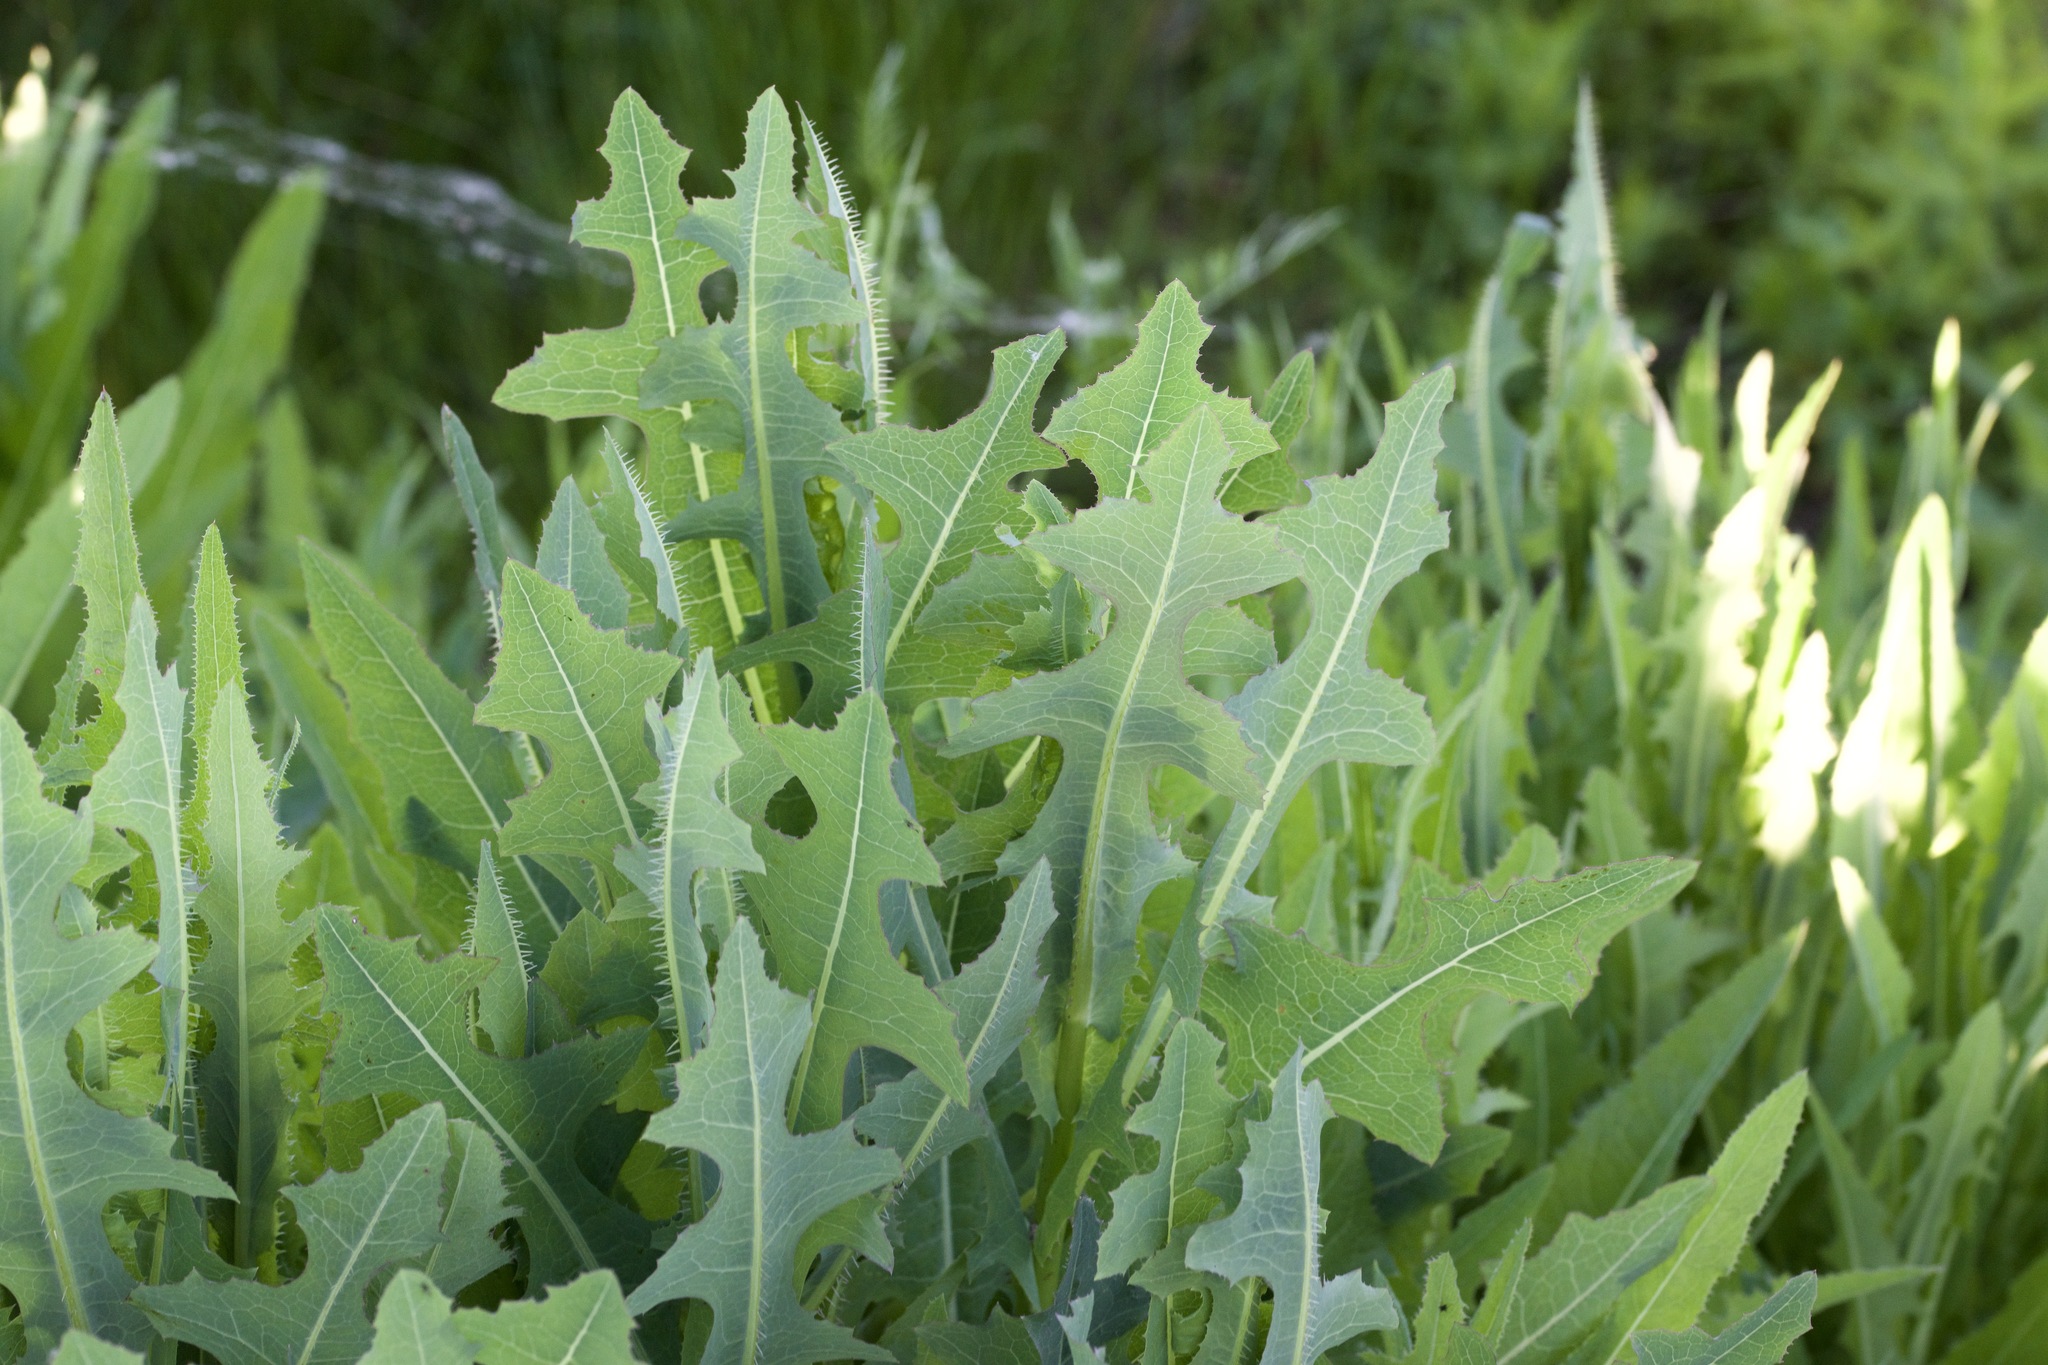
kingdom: Plantae
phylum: Tracheophyta
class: Magnoliopsida
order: Asterales
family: Asteraceae
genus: Lactuca
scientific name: Lactuca serriola
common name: Prickly lettuce
